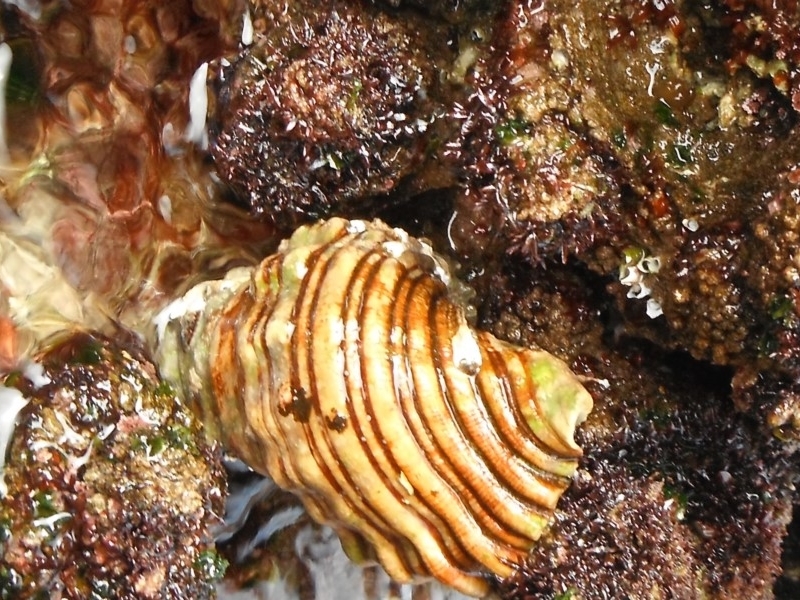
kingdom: Animalia
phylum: Mollusca
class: Gastropoda
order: Littorinimorpha
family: Cymatiidae
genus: Cabestana
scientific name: Cabestana spengleri
